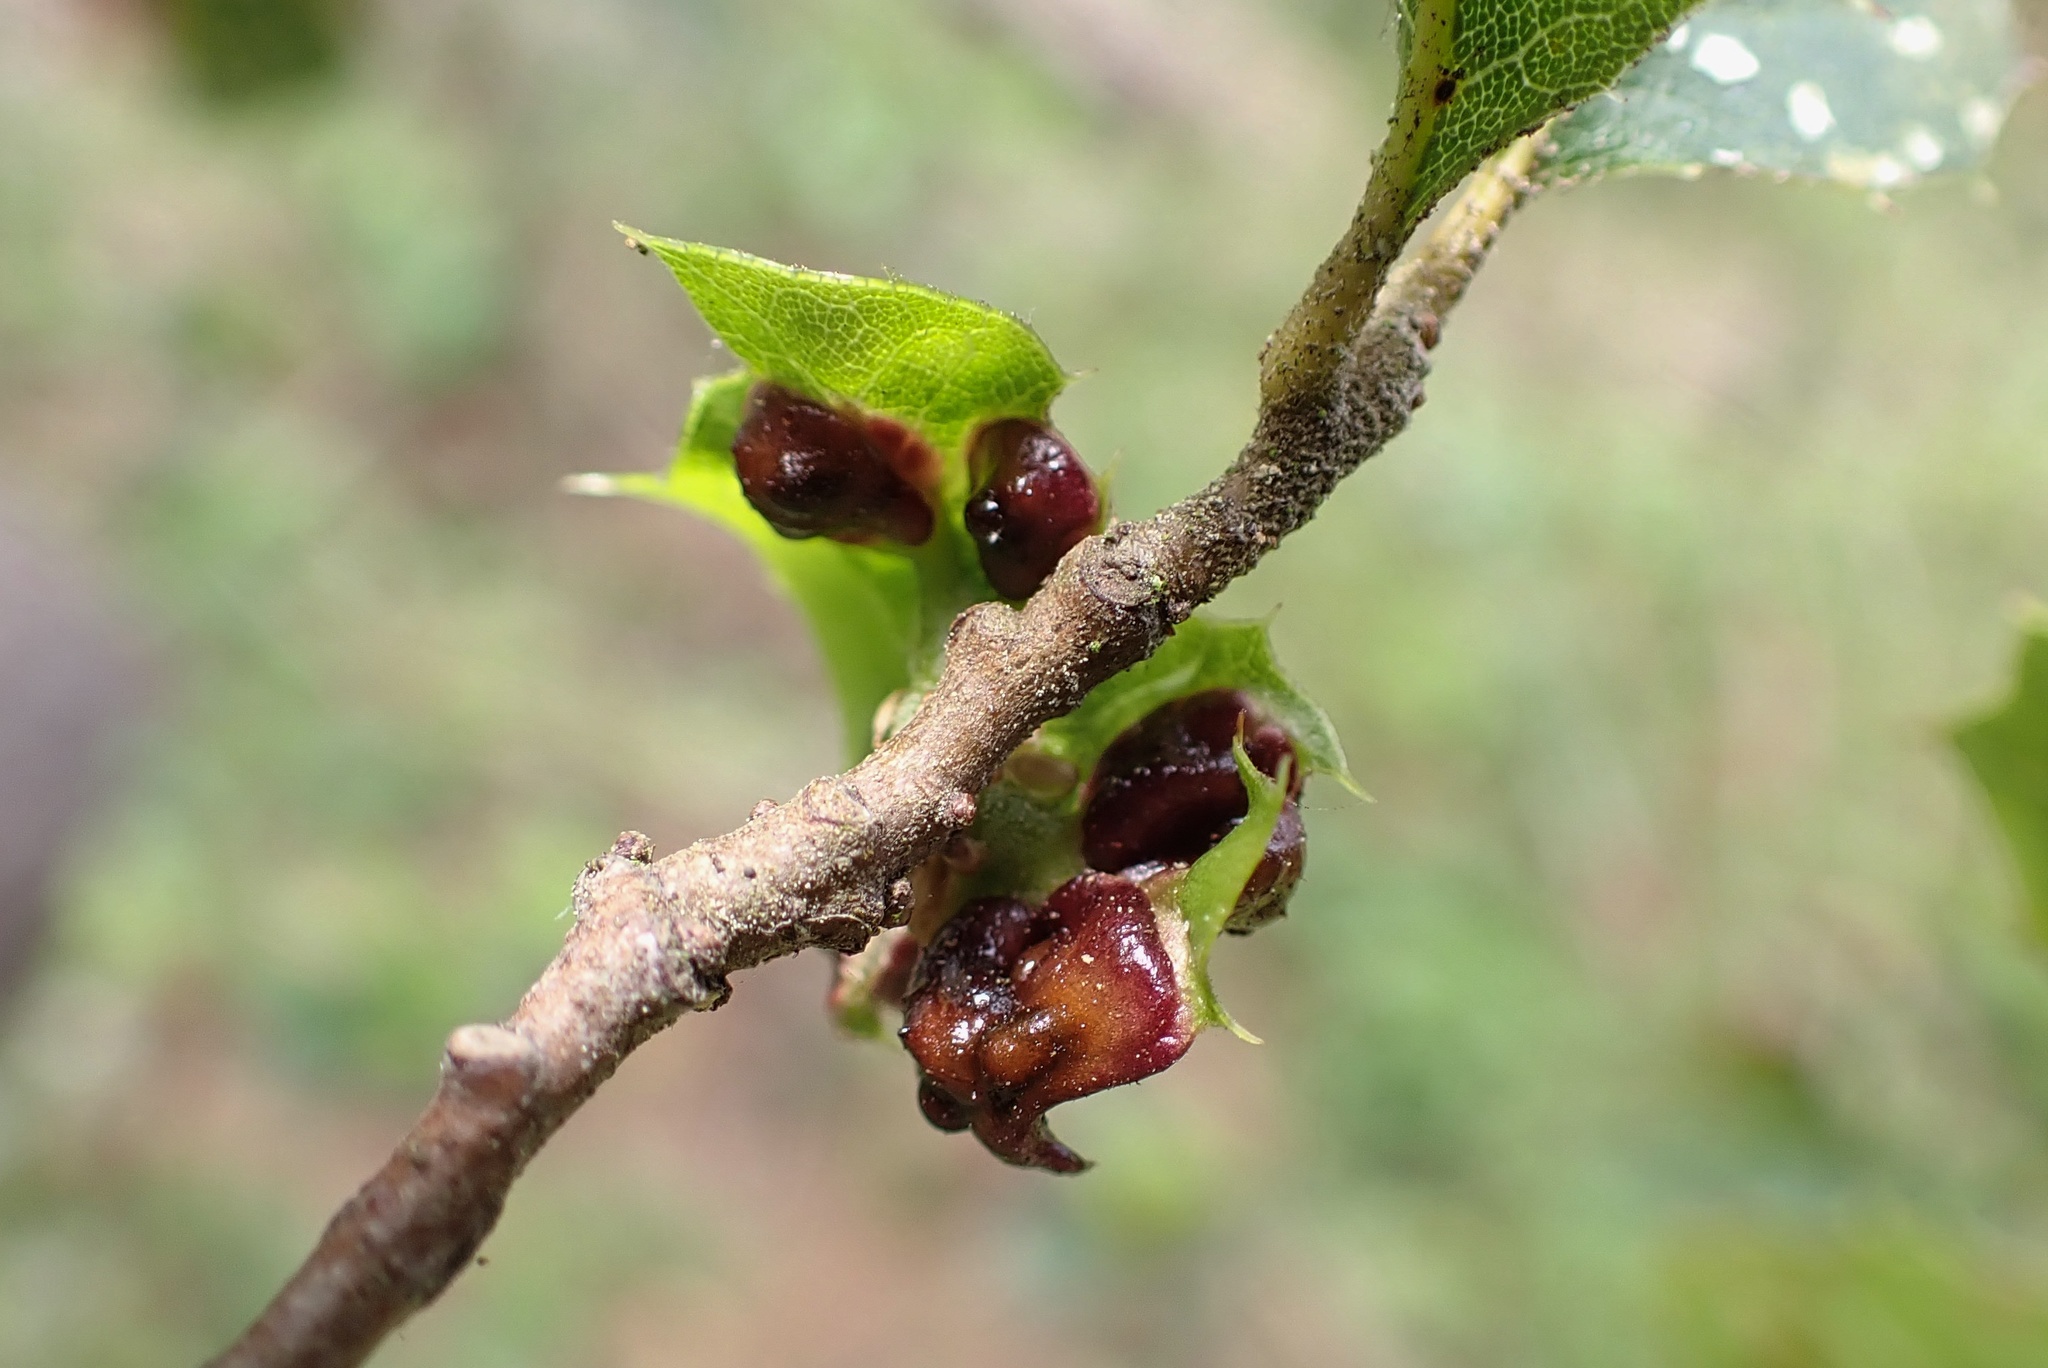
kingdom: Animalia
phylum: Arthropoda
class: Insecta
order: Hymenoptera
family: Cynipidae
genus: Dryocosmus
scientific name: Dryocosmus
